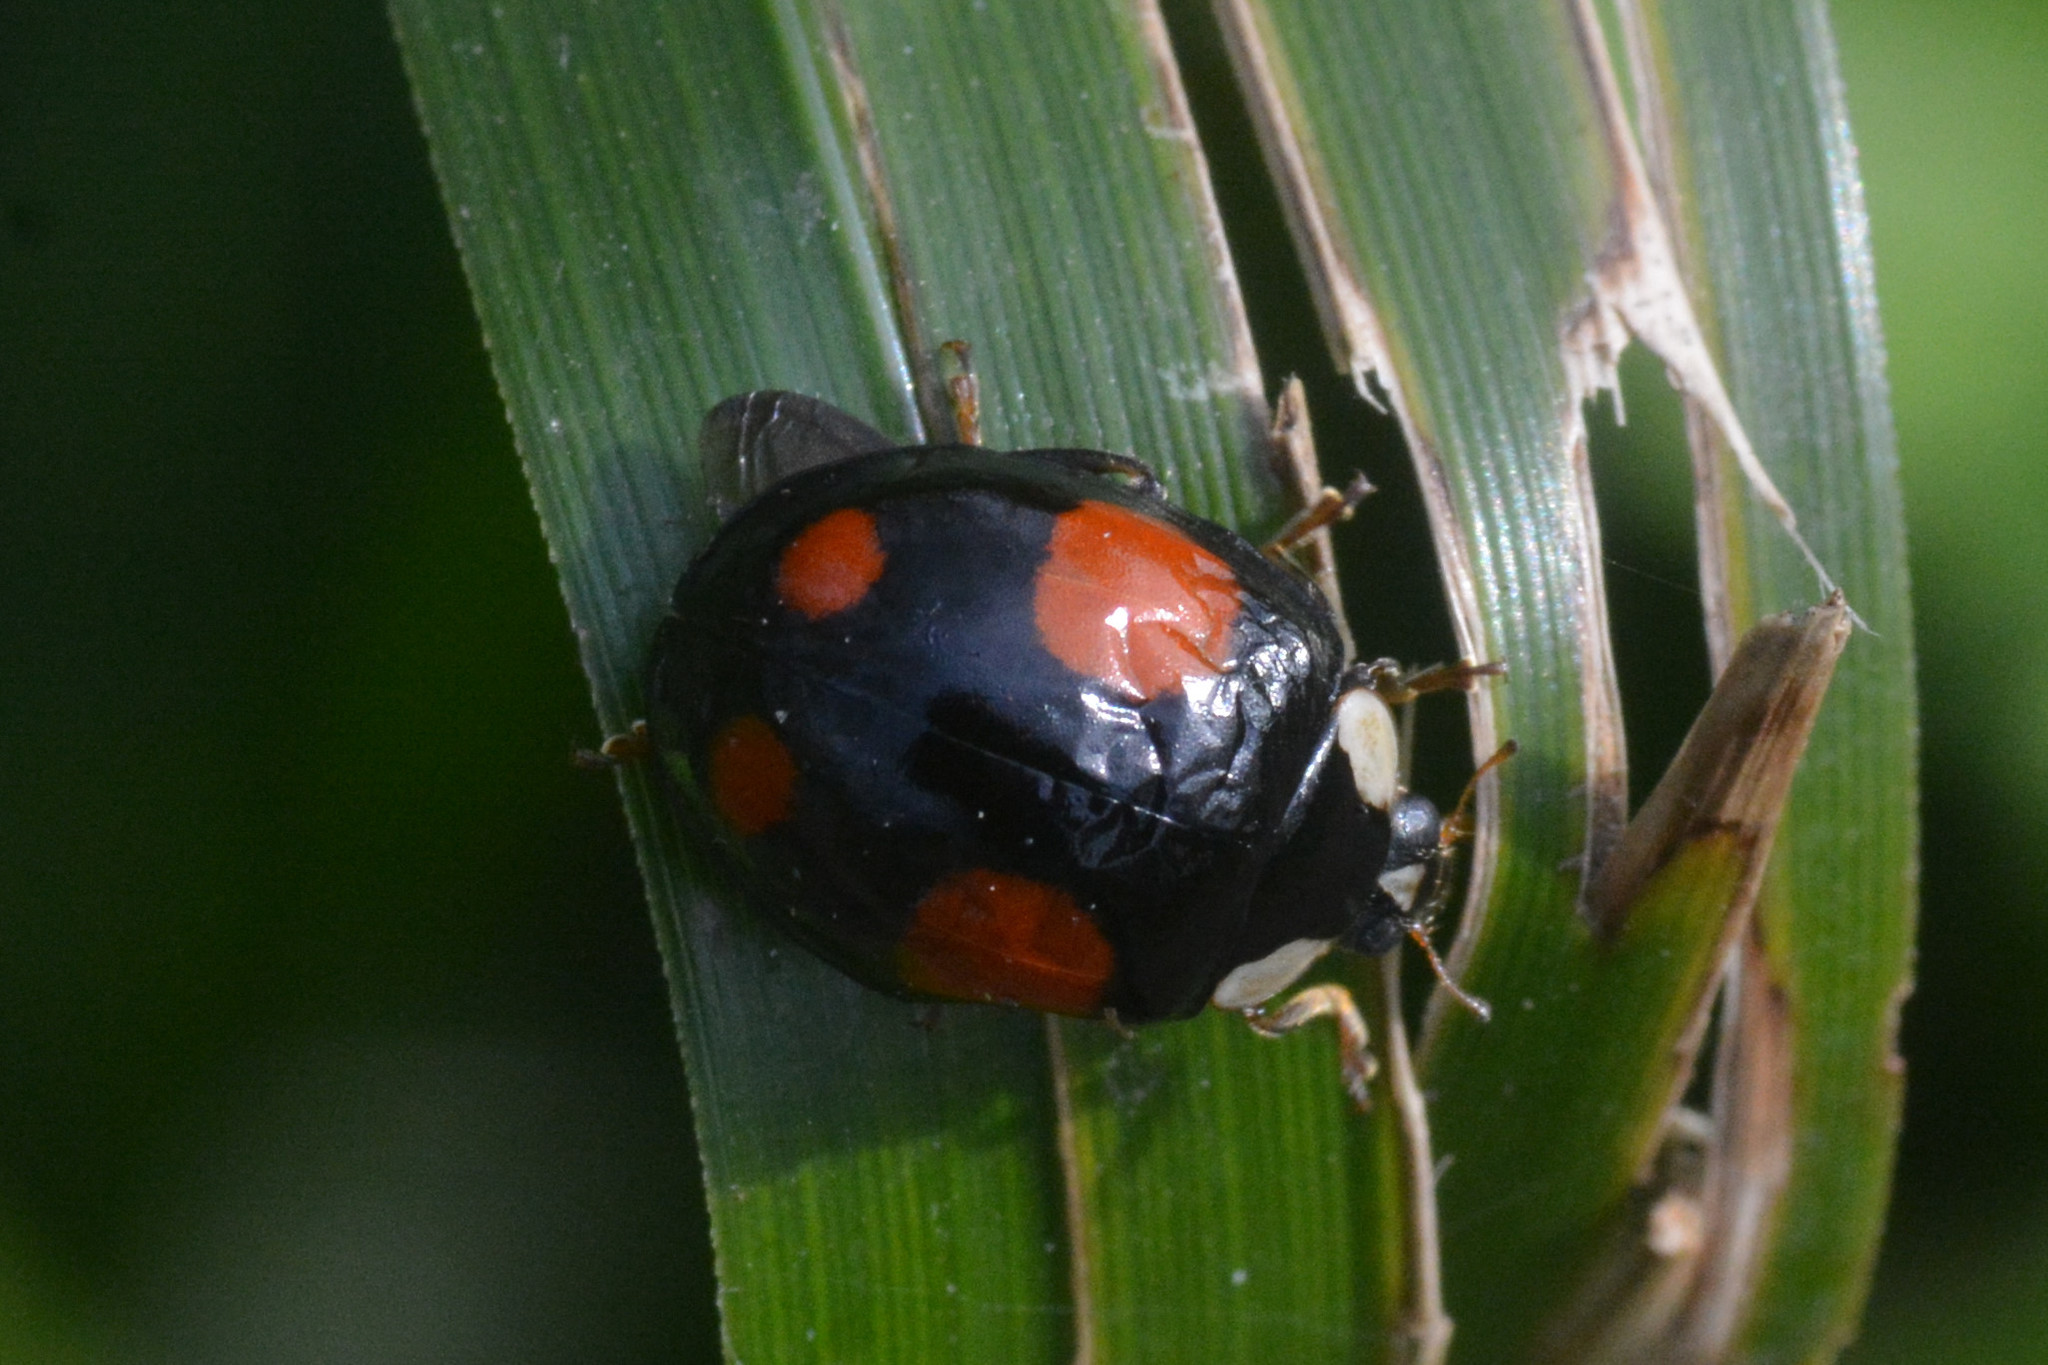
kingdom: Animalia
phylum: Arthropoda
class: Insecta
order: Coleoptera
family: Coccinellidae
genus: Harmonia
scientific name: Harmonia axyridis
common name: Harlequin ladybird
